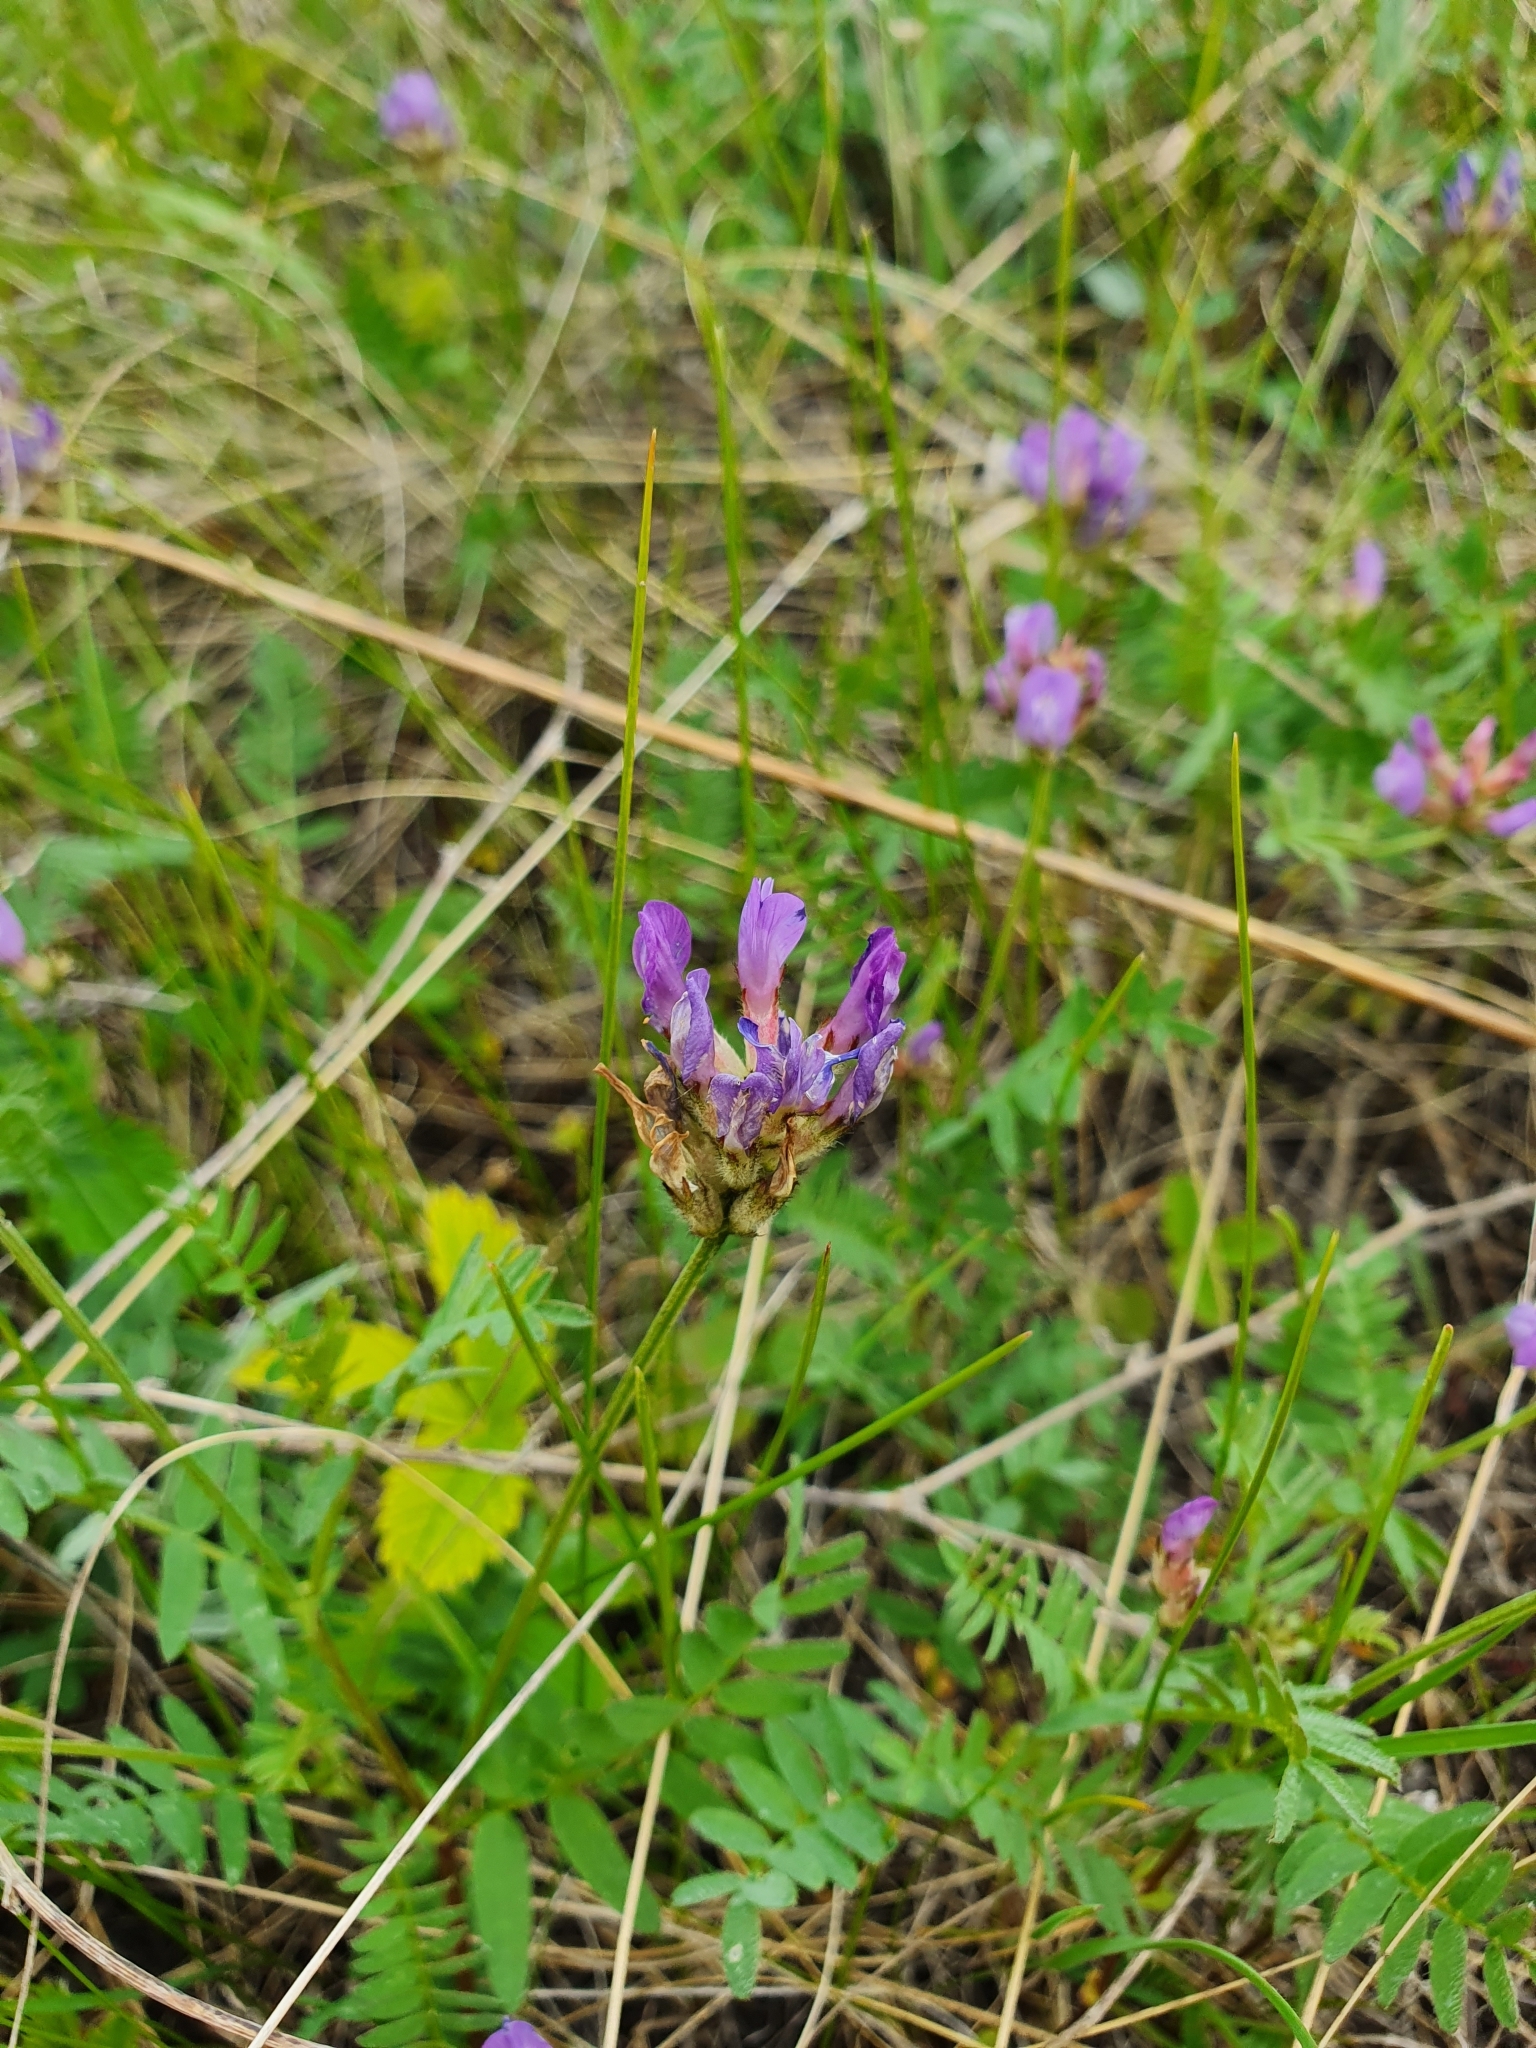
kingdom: Plantae
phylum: Tracheophyta
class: Magnoliopsida
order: Fabales
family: Fabaceae
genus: Astragalus
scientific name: Astragalus danicus
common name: Purple milk-vetch
